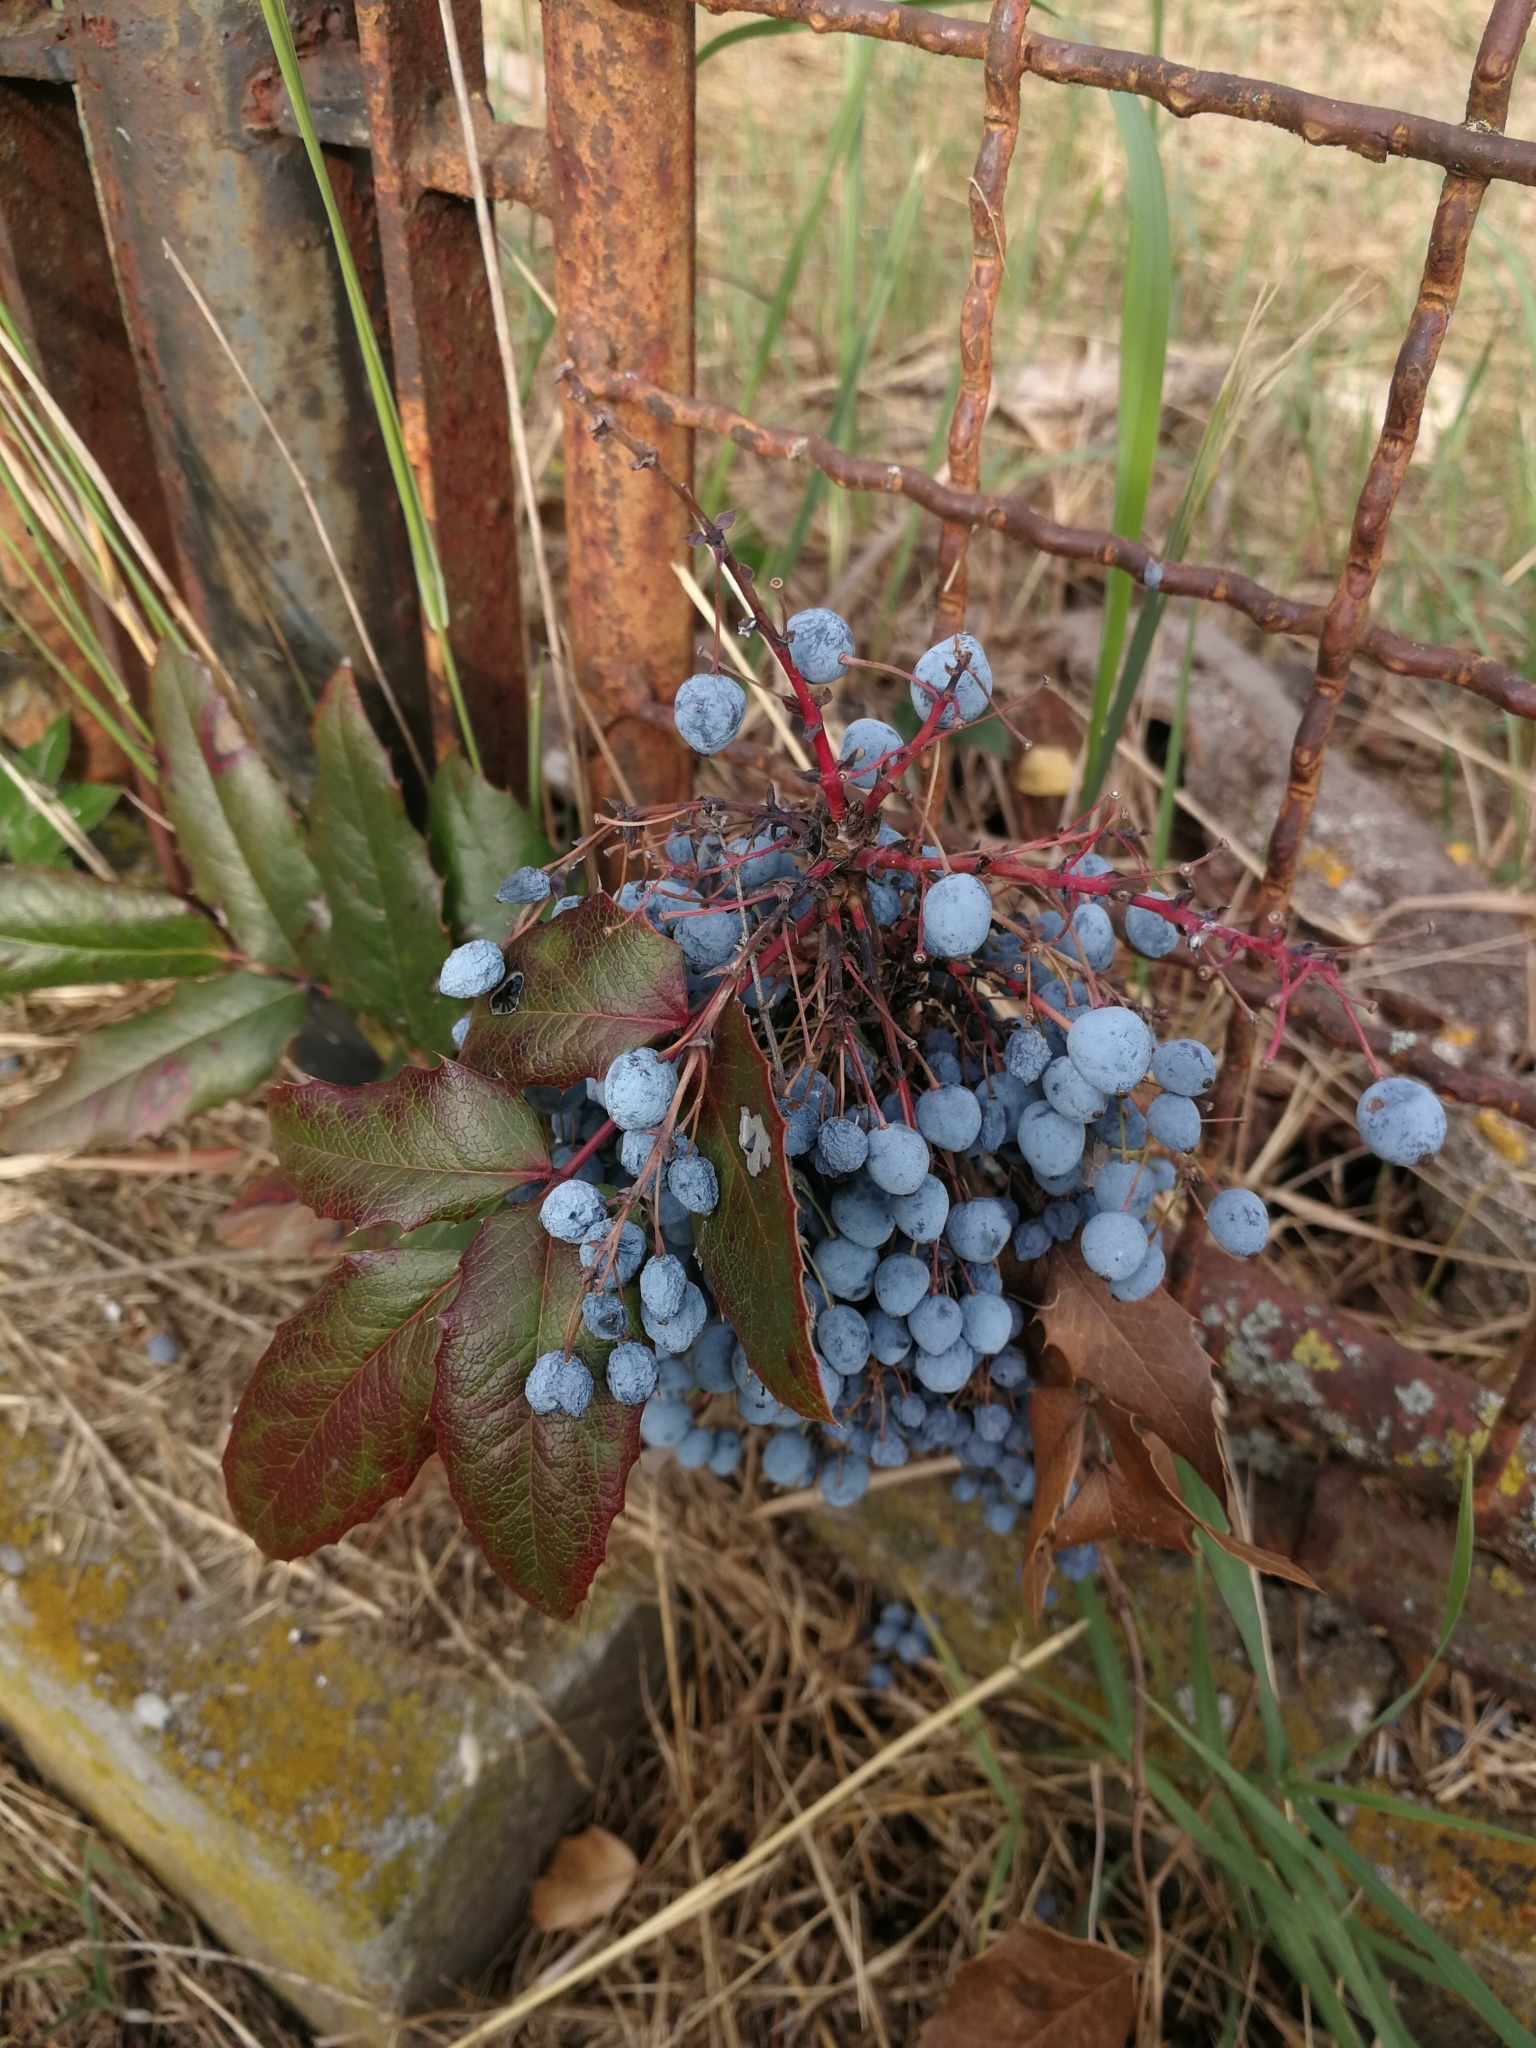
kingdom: Plantae
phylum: Tracheophyta
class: Magnoliopsida
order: Ranunculales
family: Berberidaceae
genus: Mahonia
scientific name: Mahonia aquifolium
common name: Oregon-grape
